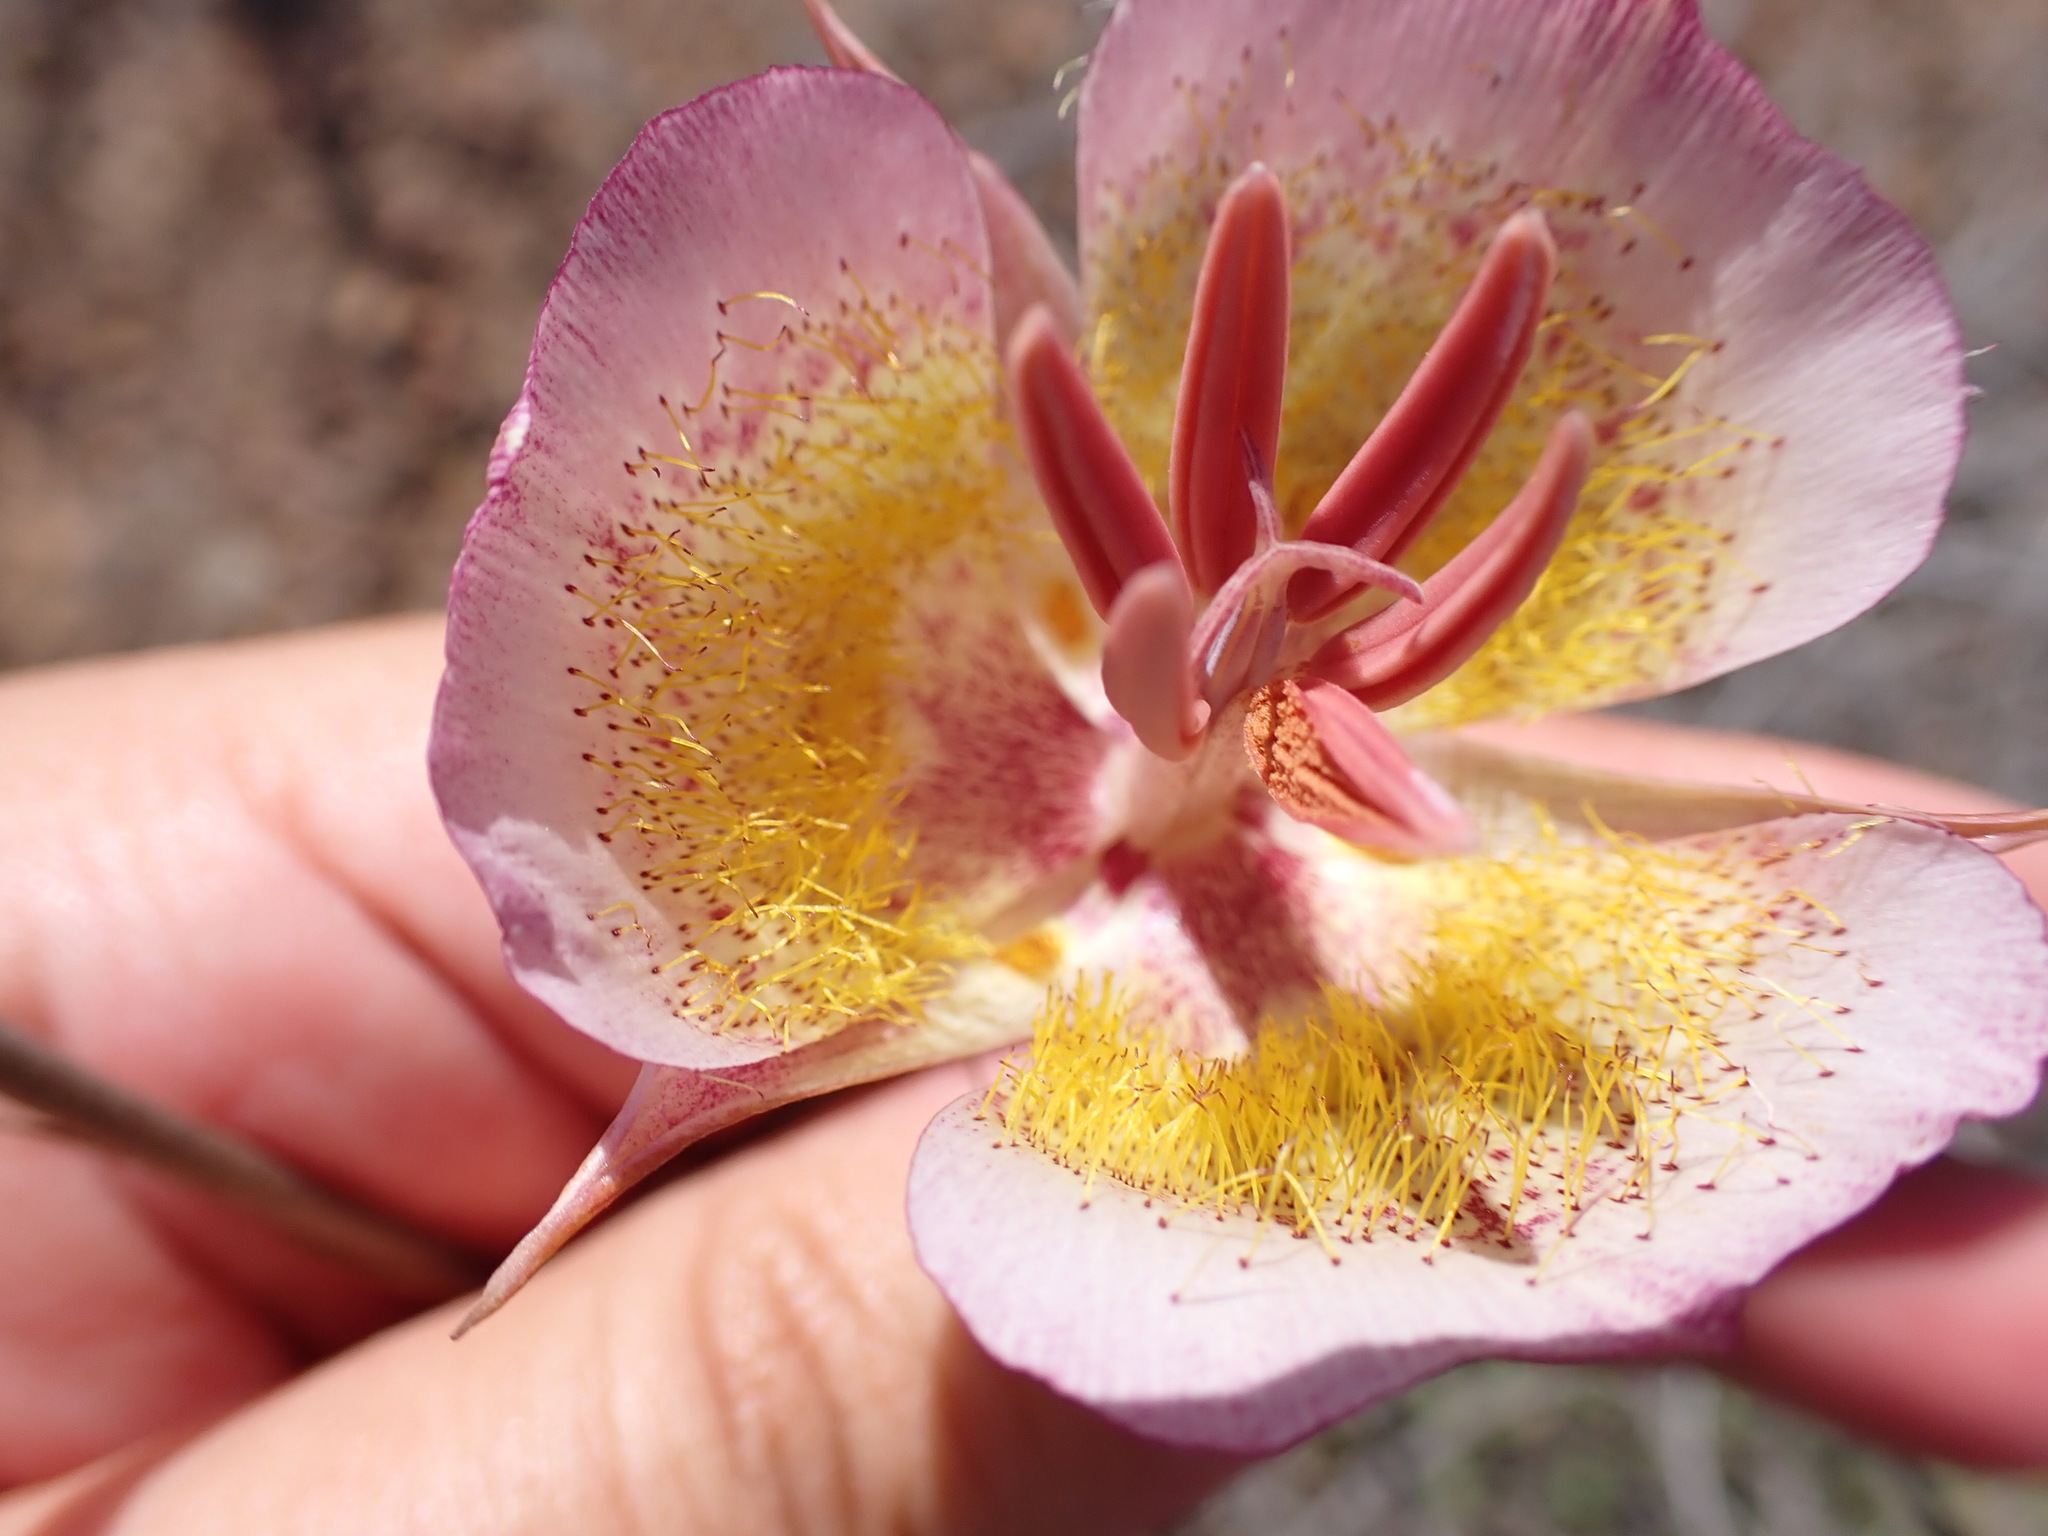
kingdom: Plantae
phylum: Tracheophyta
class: Liliopsida
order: Liliales
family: Liliaceae
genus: Calochortus
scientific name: Calochortus plummerae
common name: Plummer's mariposa-lily
